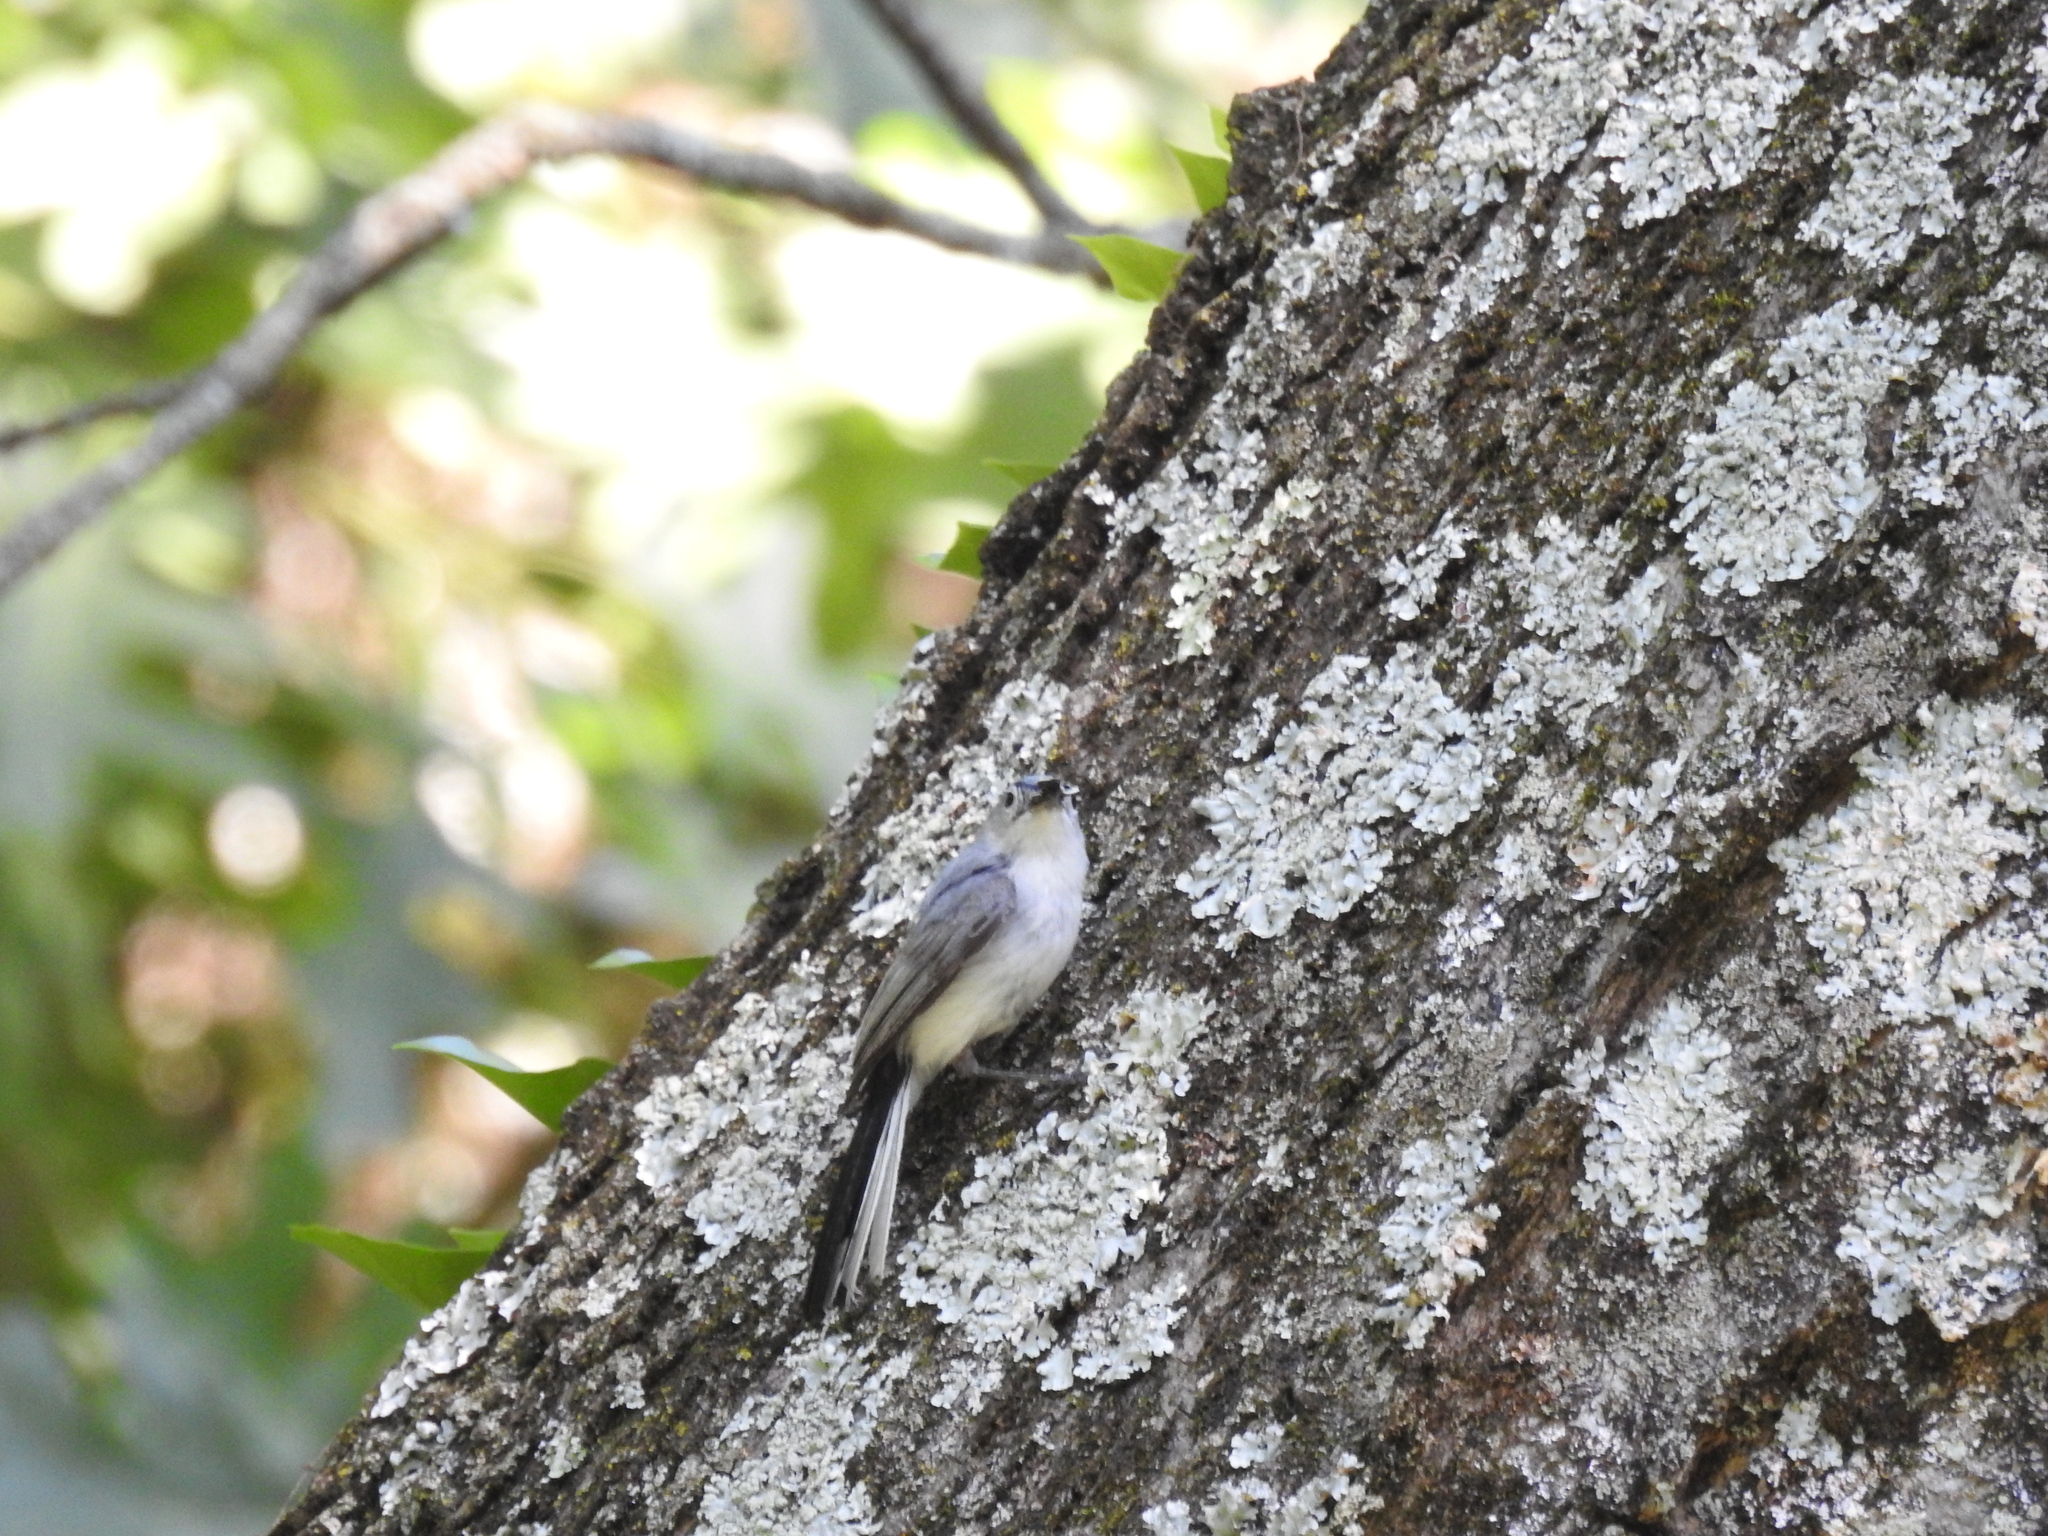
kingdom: Animalia
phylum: Chordata
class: Aves
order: Passeriformes
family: Polioptilidae
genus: Polioptila
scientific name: Polioptila caerulea
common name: Blue-gray gnatcatcher
